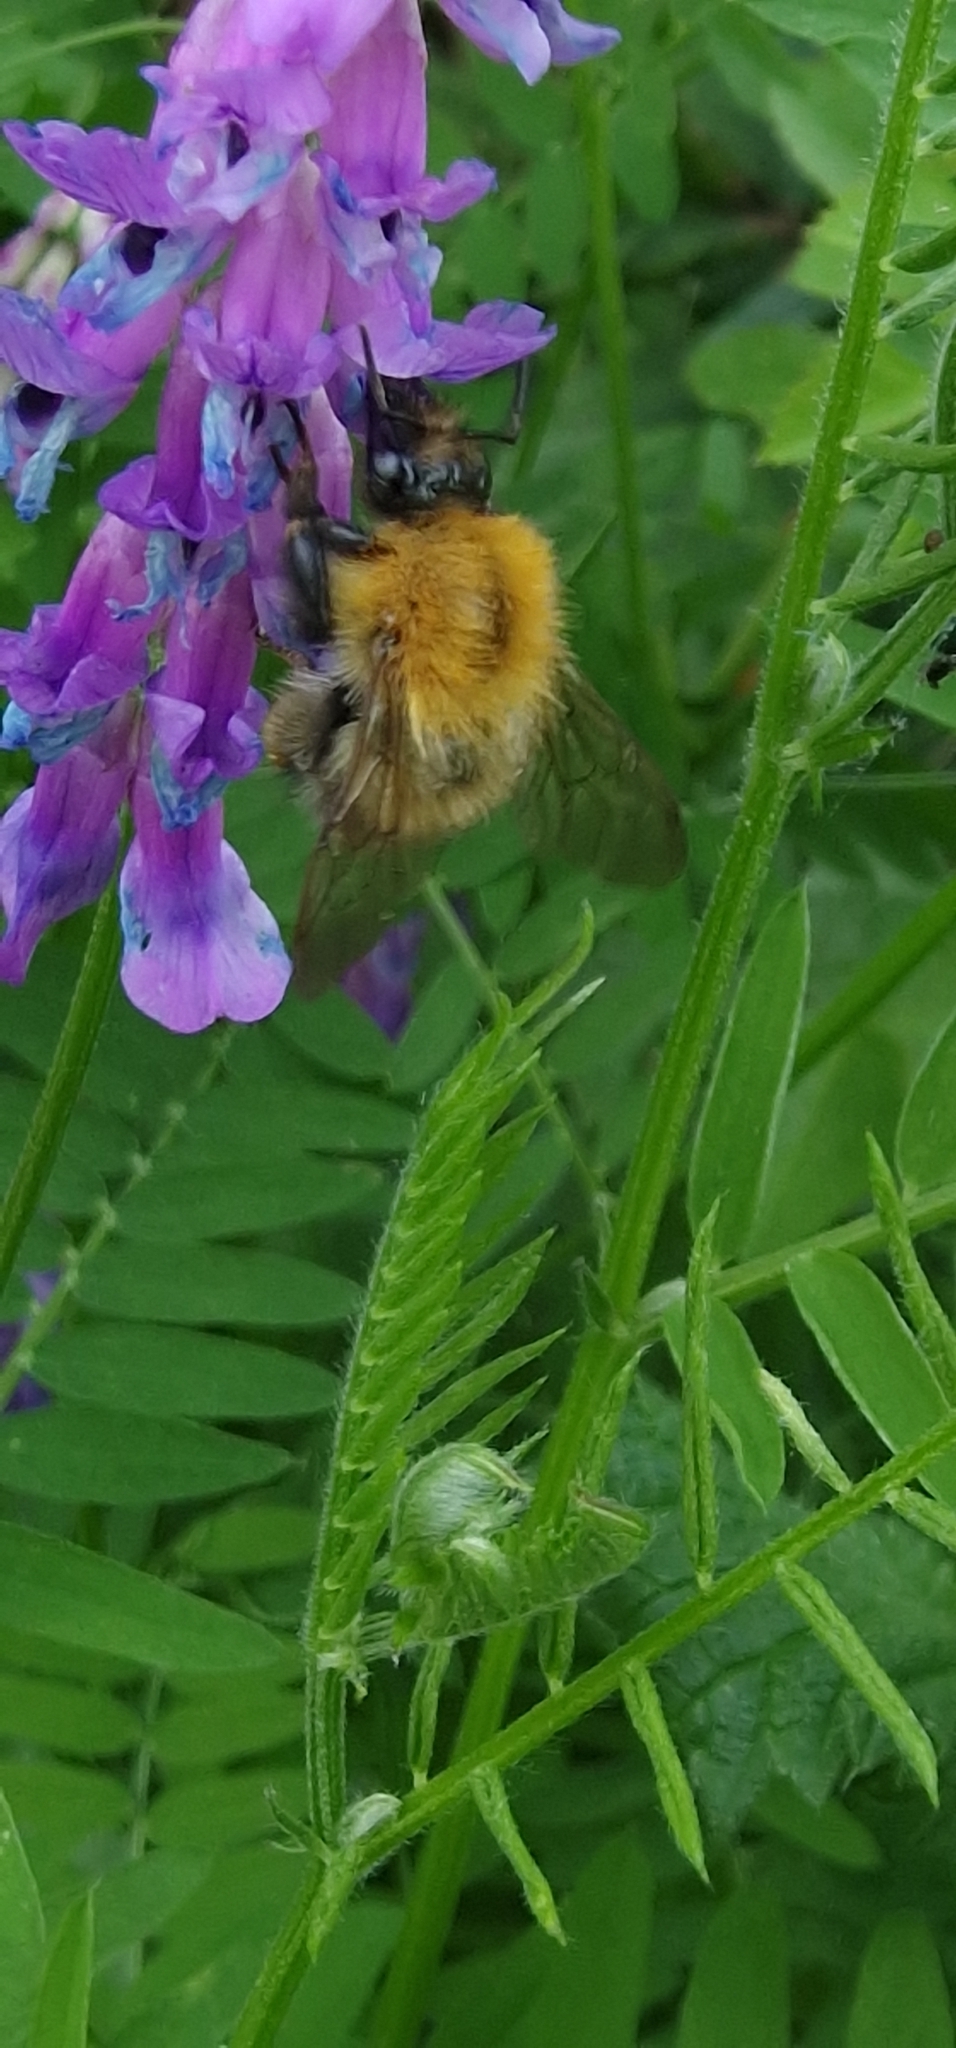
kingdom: Animalia
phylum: Arthropoda
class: Insecta
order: Hymenoptera
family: Apidae
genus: Bombus
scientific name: Bombus pascuorum
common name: Common carder bee
